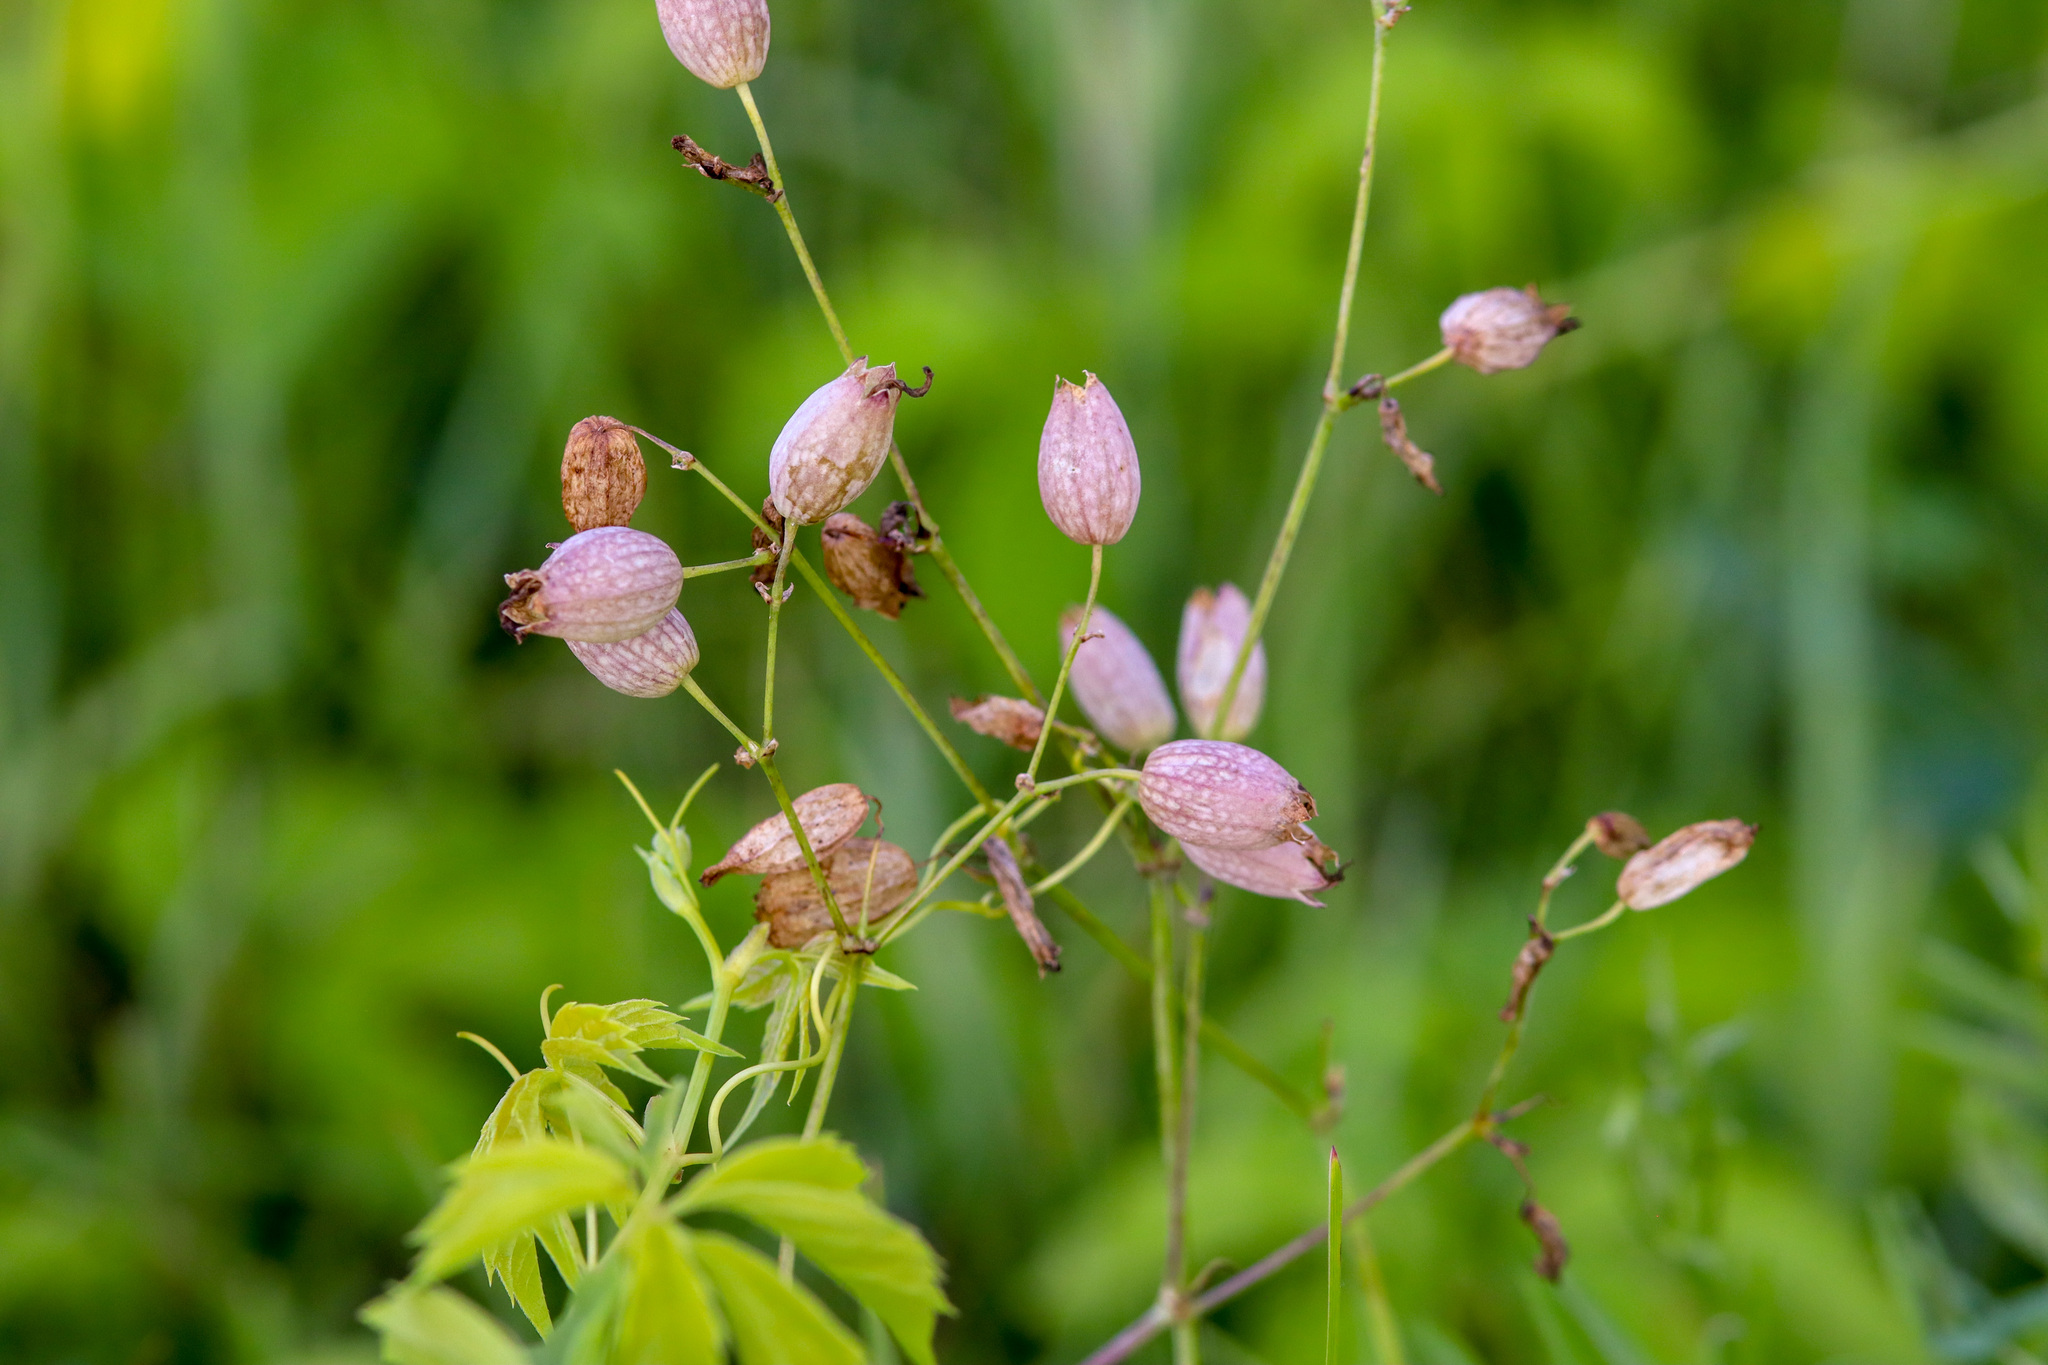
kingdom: Plantae
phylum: Tracheophyta
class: Magnoliopsida
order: Caryophyllales
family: Caryophyllaceae
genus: Silene
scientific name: Silene vulgaris
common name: Bladder campion
